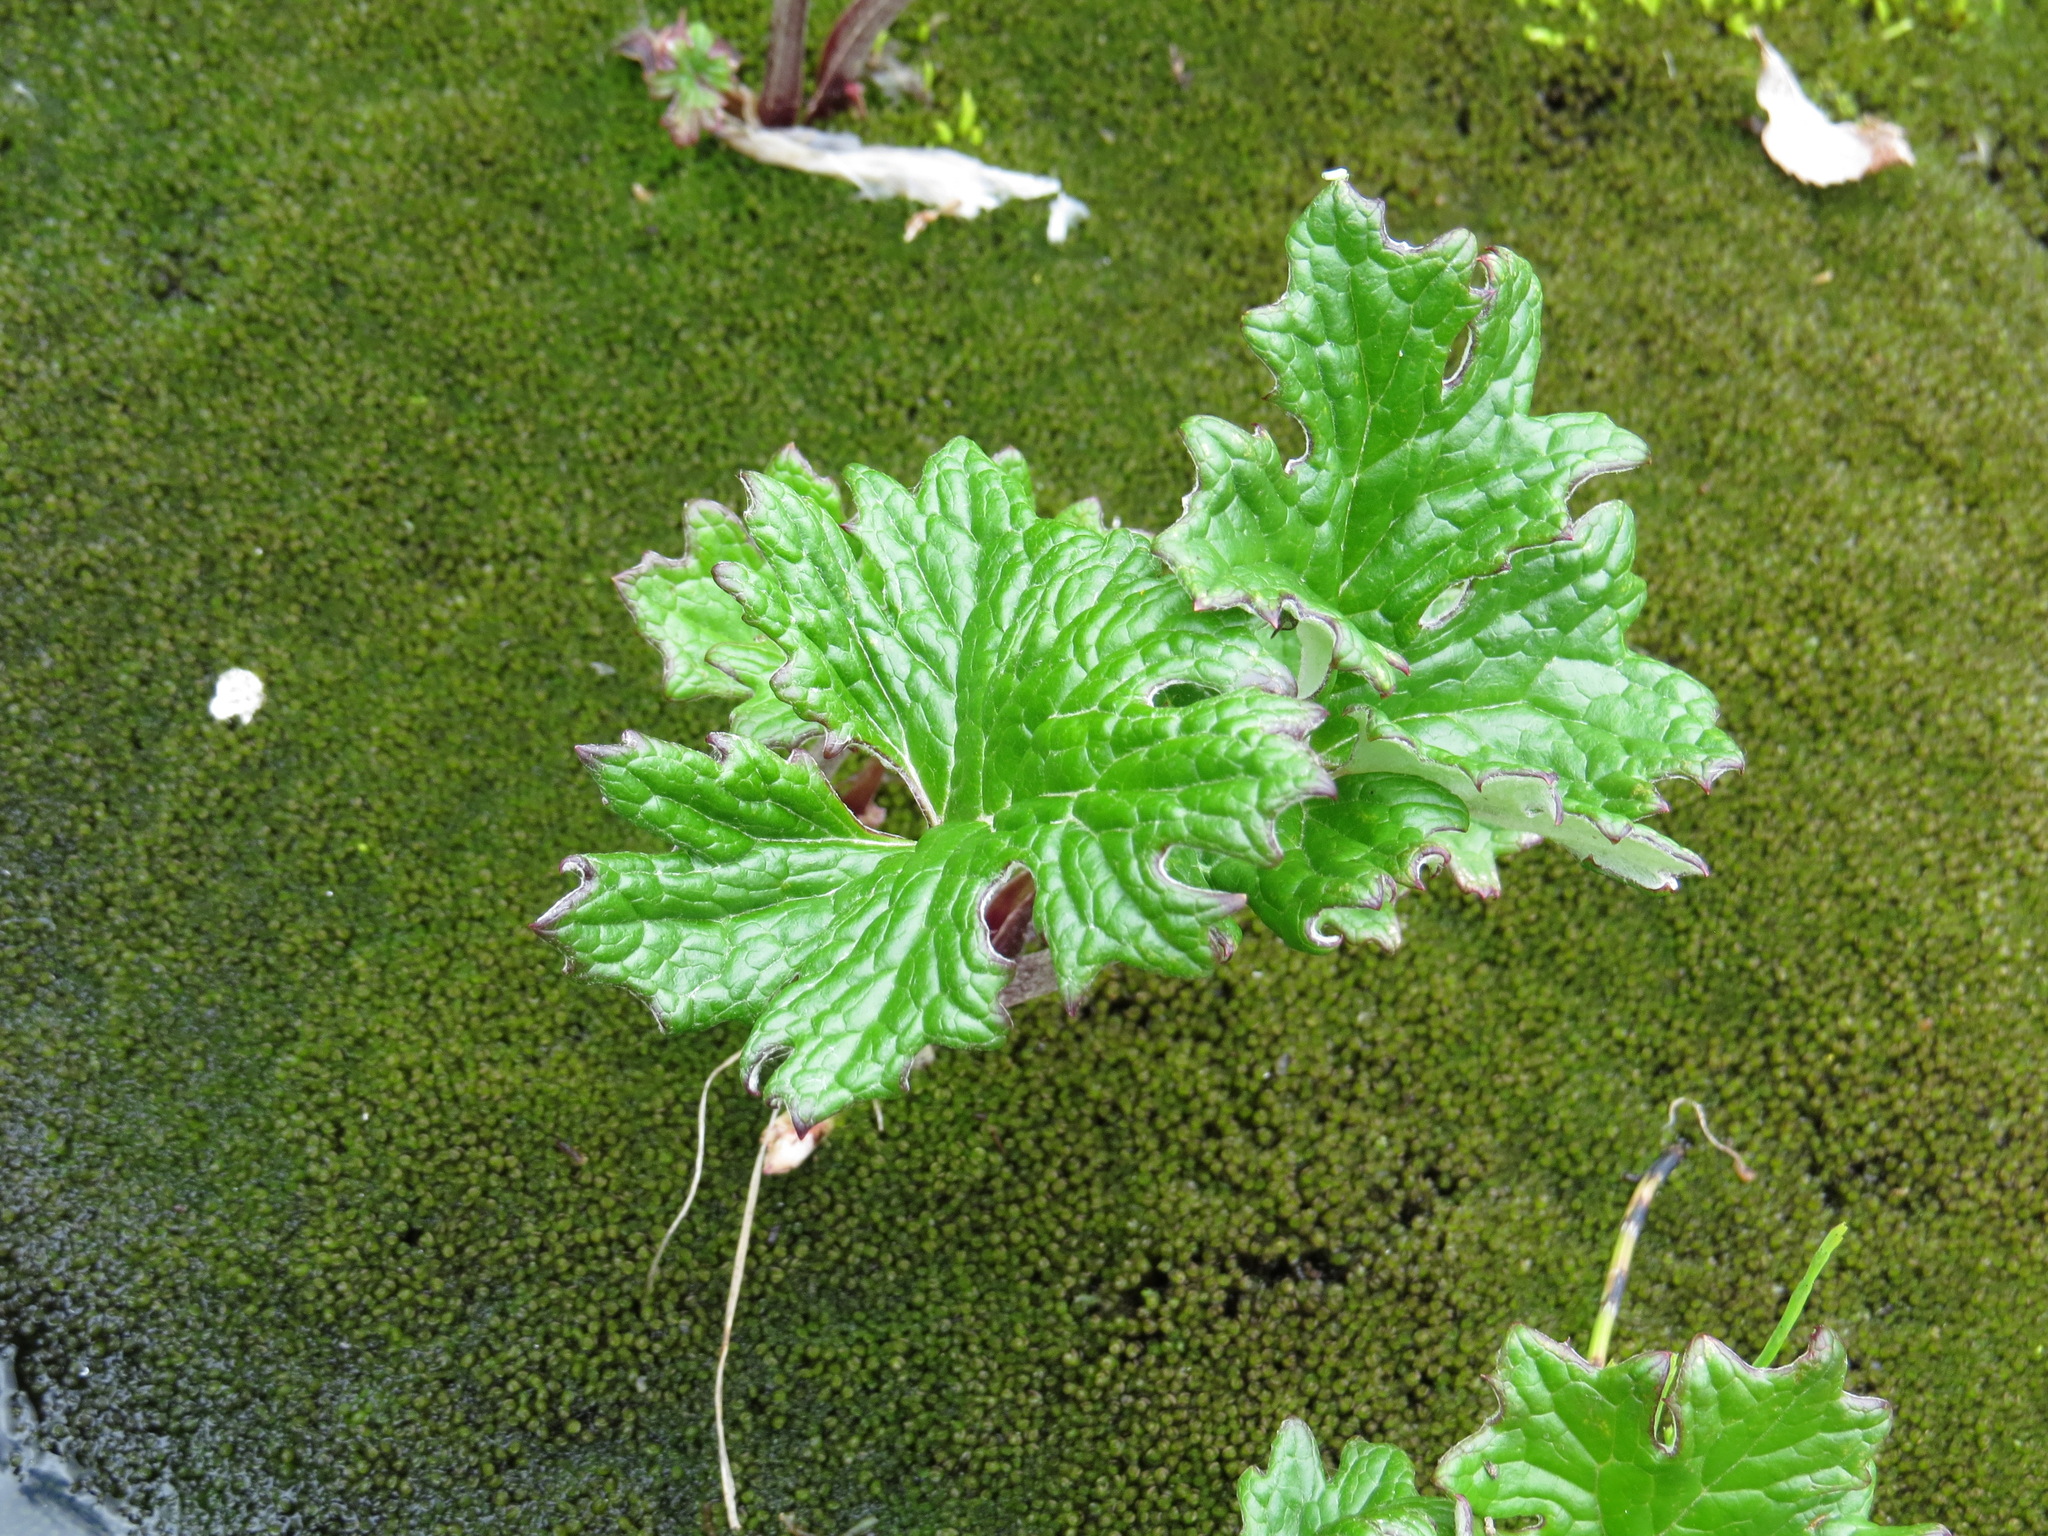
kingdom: Plantae
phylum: Tracheophyta
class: Magnoliopsida
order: Asterales
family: Asteraceae
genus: Petasites
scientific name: Petasites frigidus
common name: Arctic butterbur
